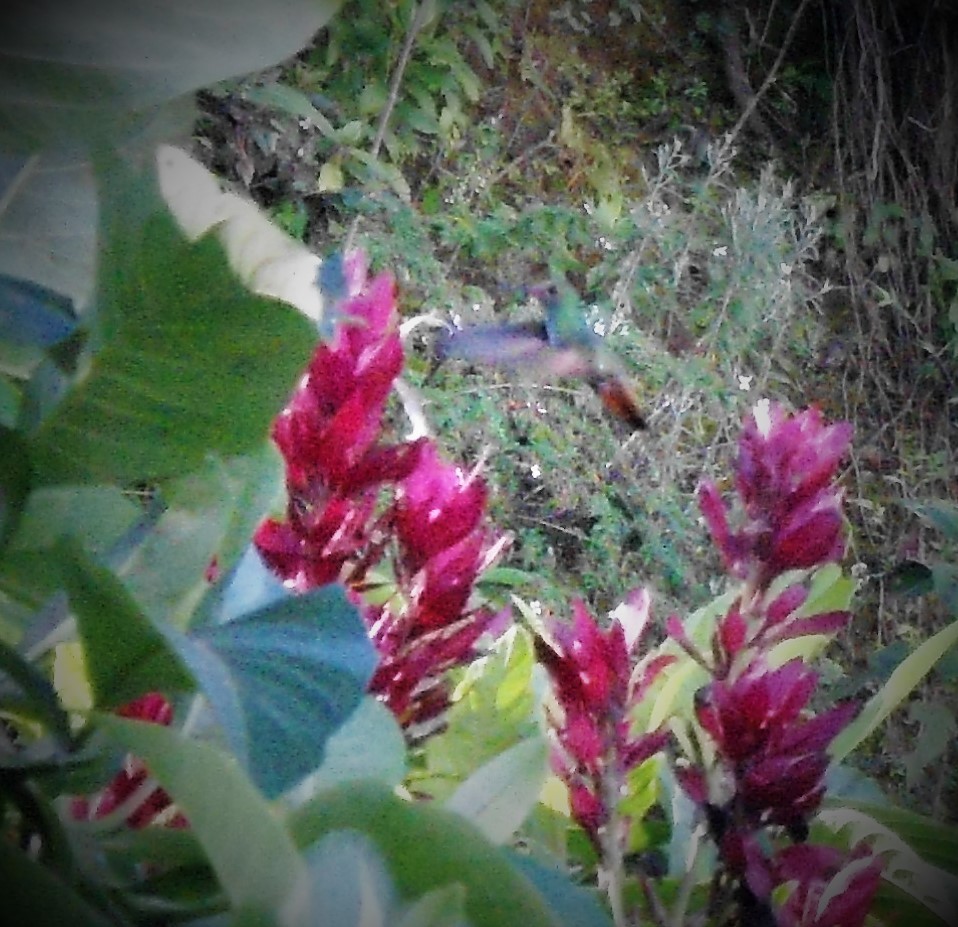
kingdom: Animalia
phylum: Chordata
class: Aves
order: Apodiformes
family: Trochilidae
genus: Amazilia
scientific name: Amazilia tzacatl
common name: Rufous-tailed hummingbird
